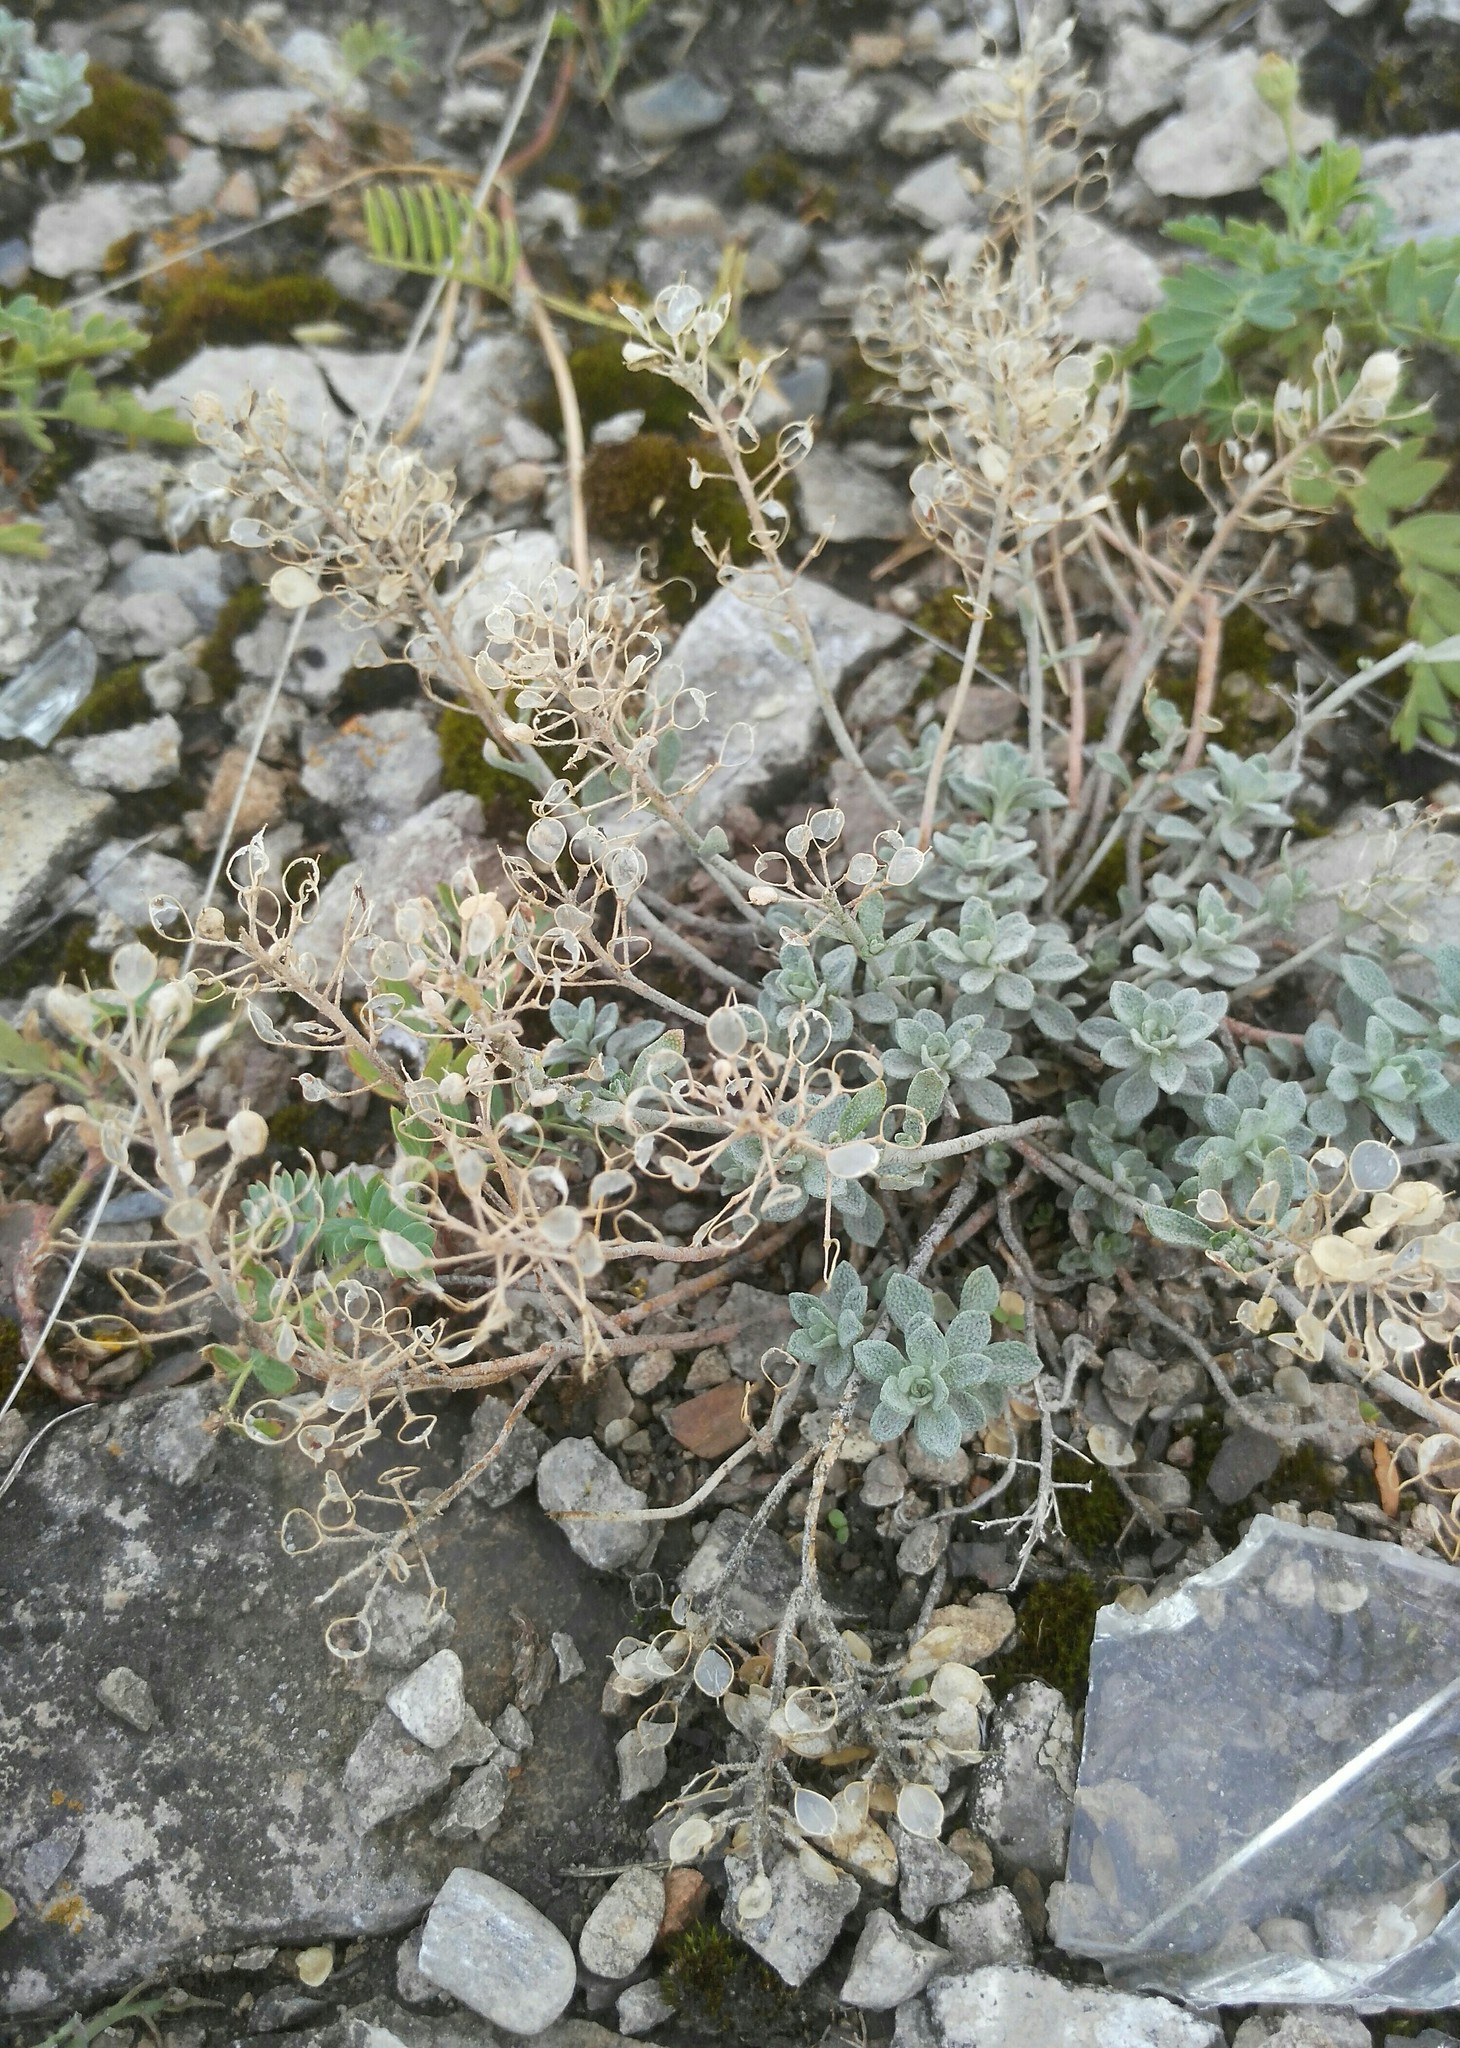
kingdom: Plantae
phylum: Tracheophyta
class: Magnoliopsida
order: Brassicales
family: Brassicaceae
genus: Odontarrhena
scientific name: Odontarrhena obovata
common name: American alyssum
